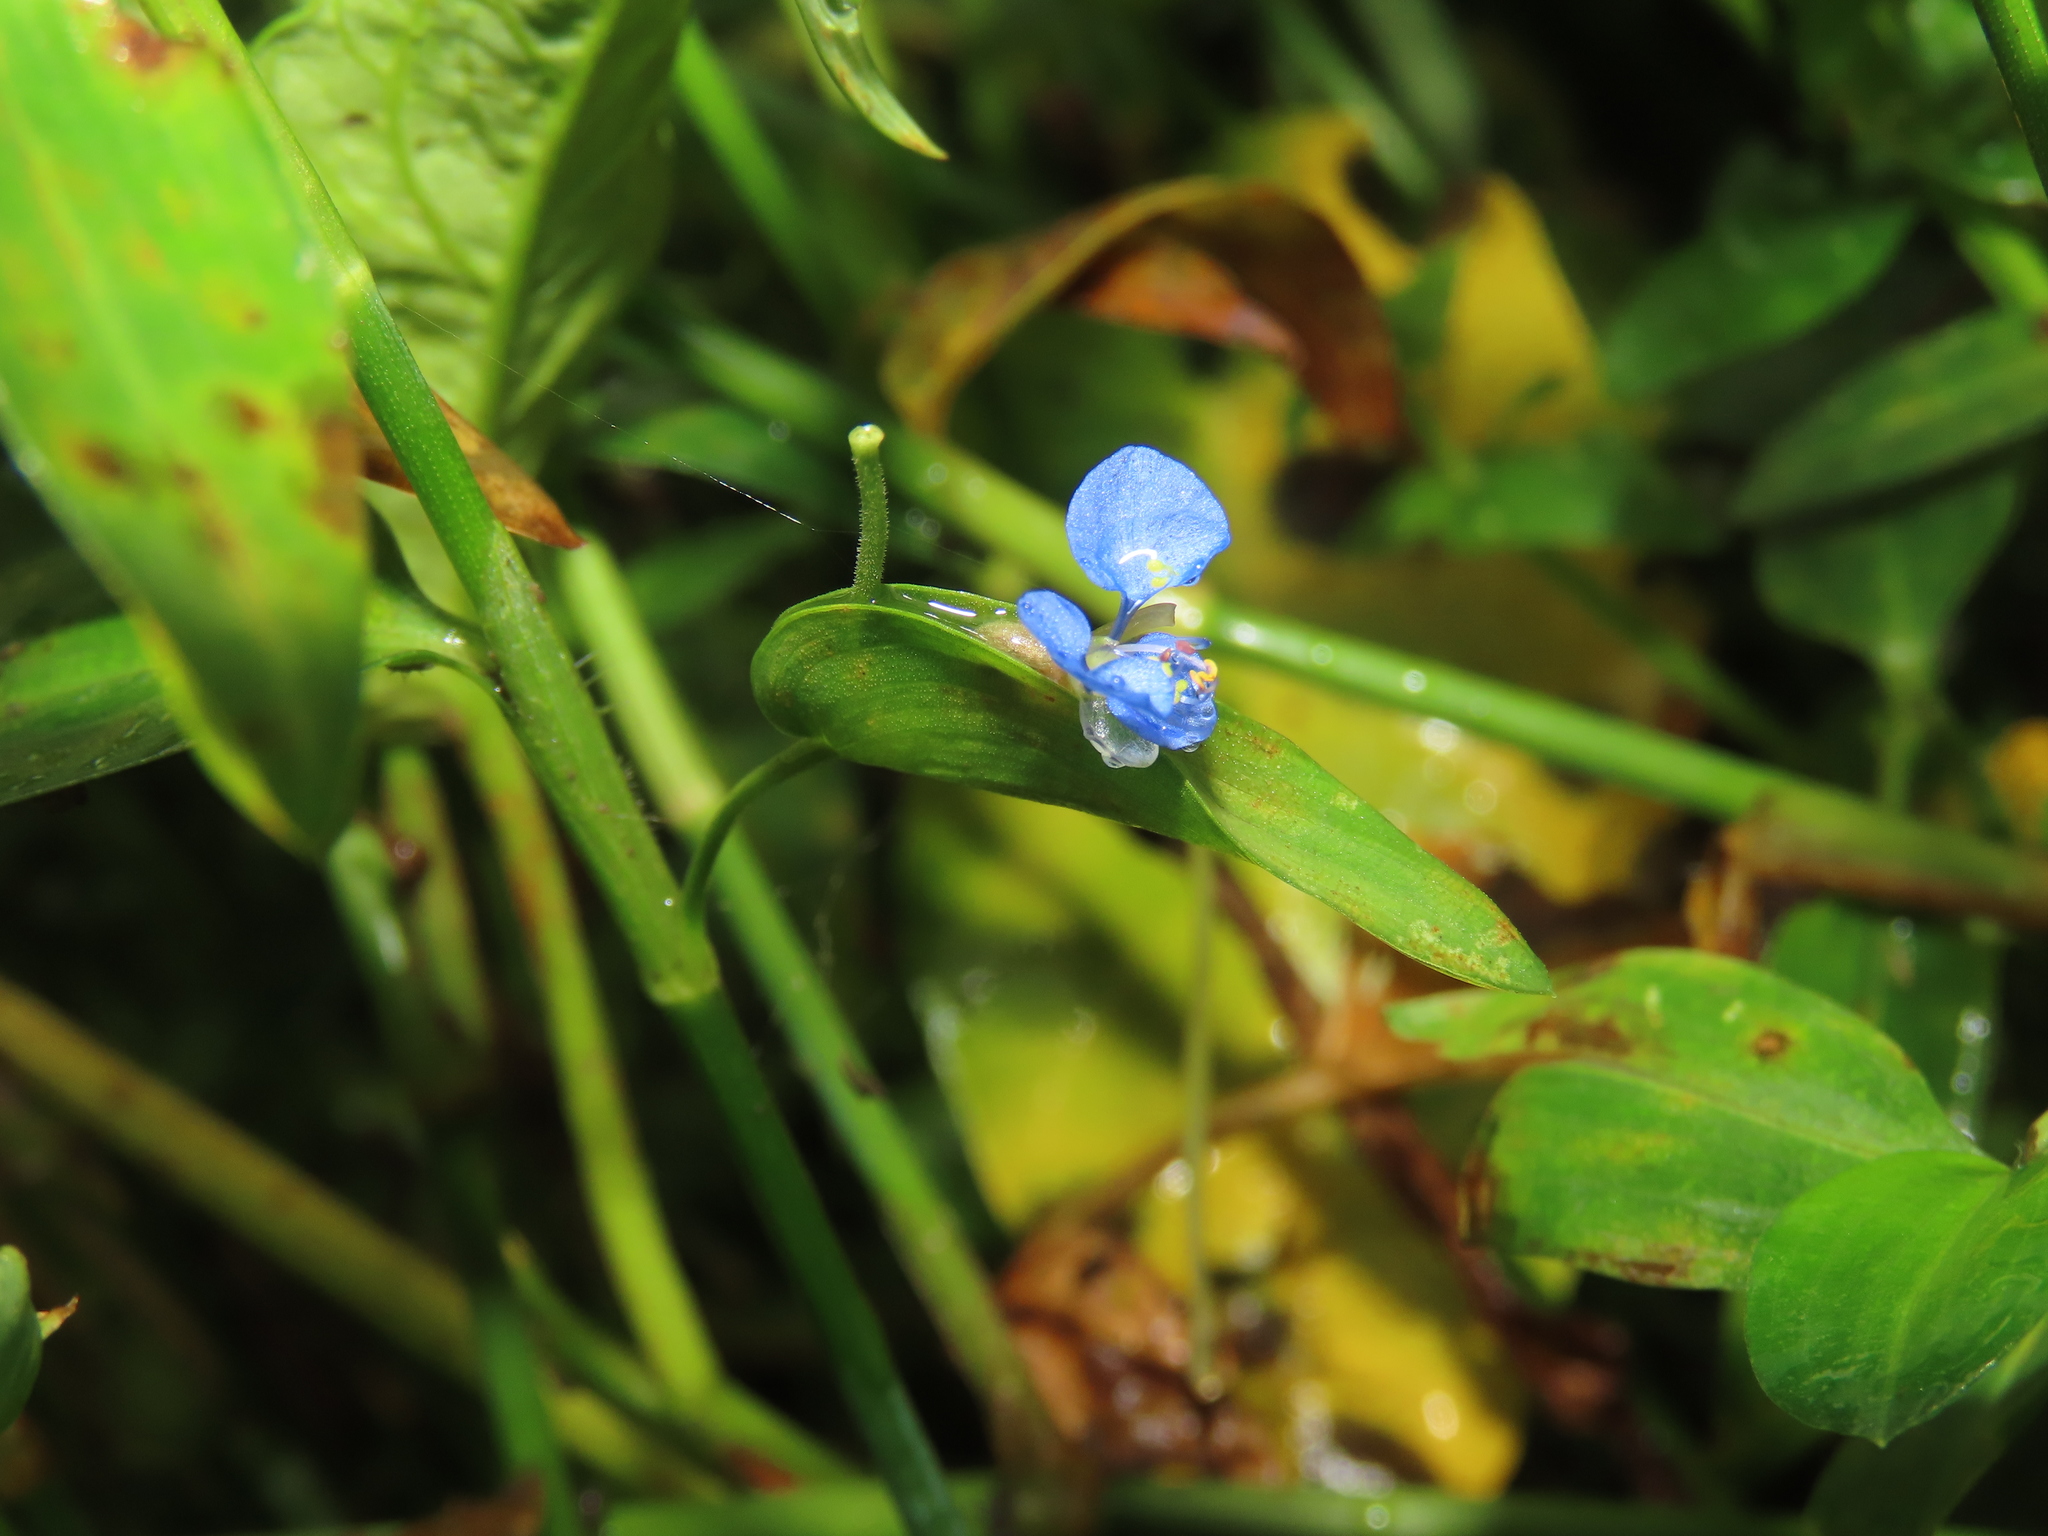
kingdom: Plantae
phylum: Tracheophyta
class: Liliopsida
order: Commelinales
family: Commelinaceae
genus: Commelina
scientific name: Commelina diffusa
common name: Climbing dayflower
